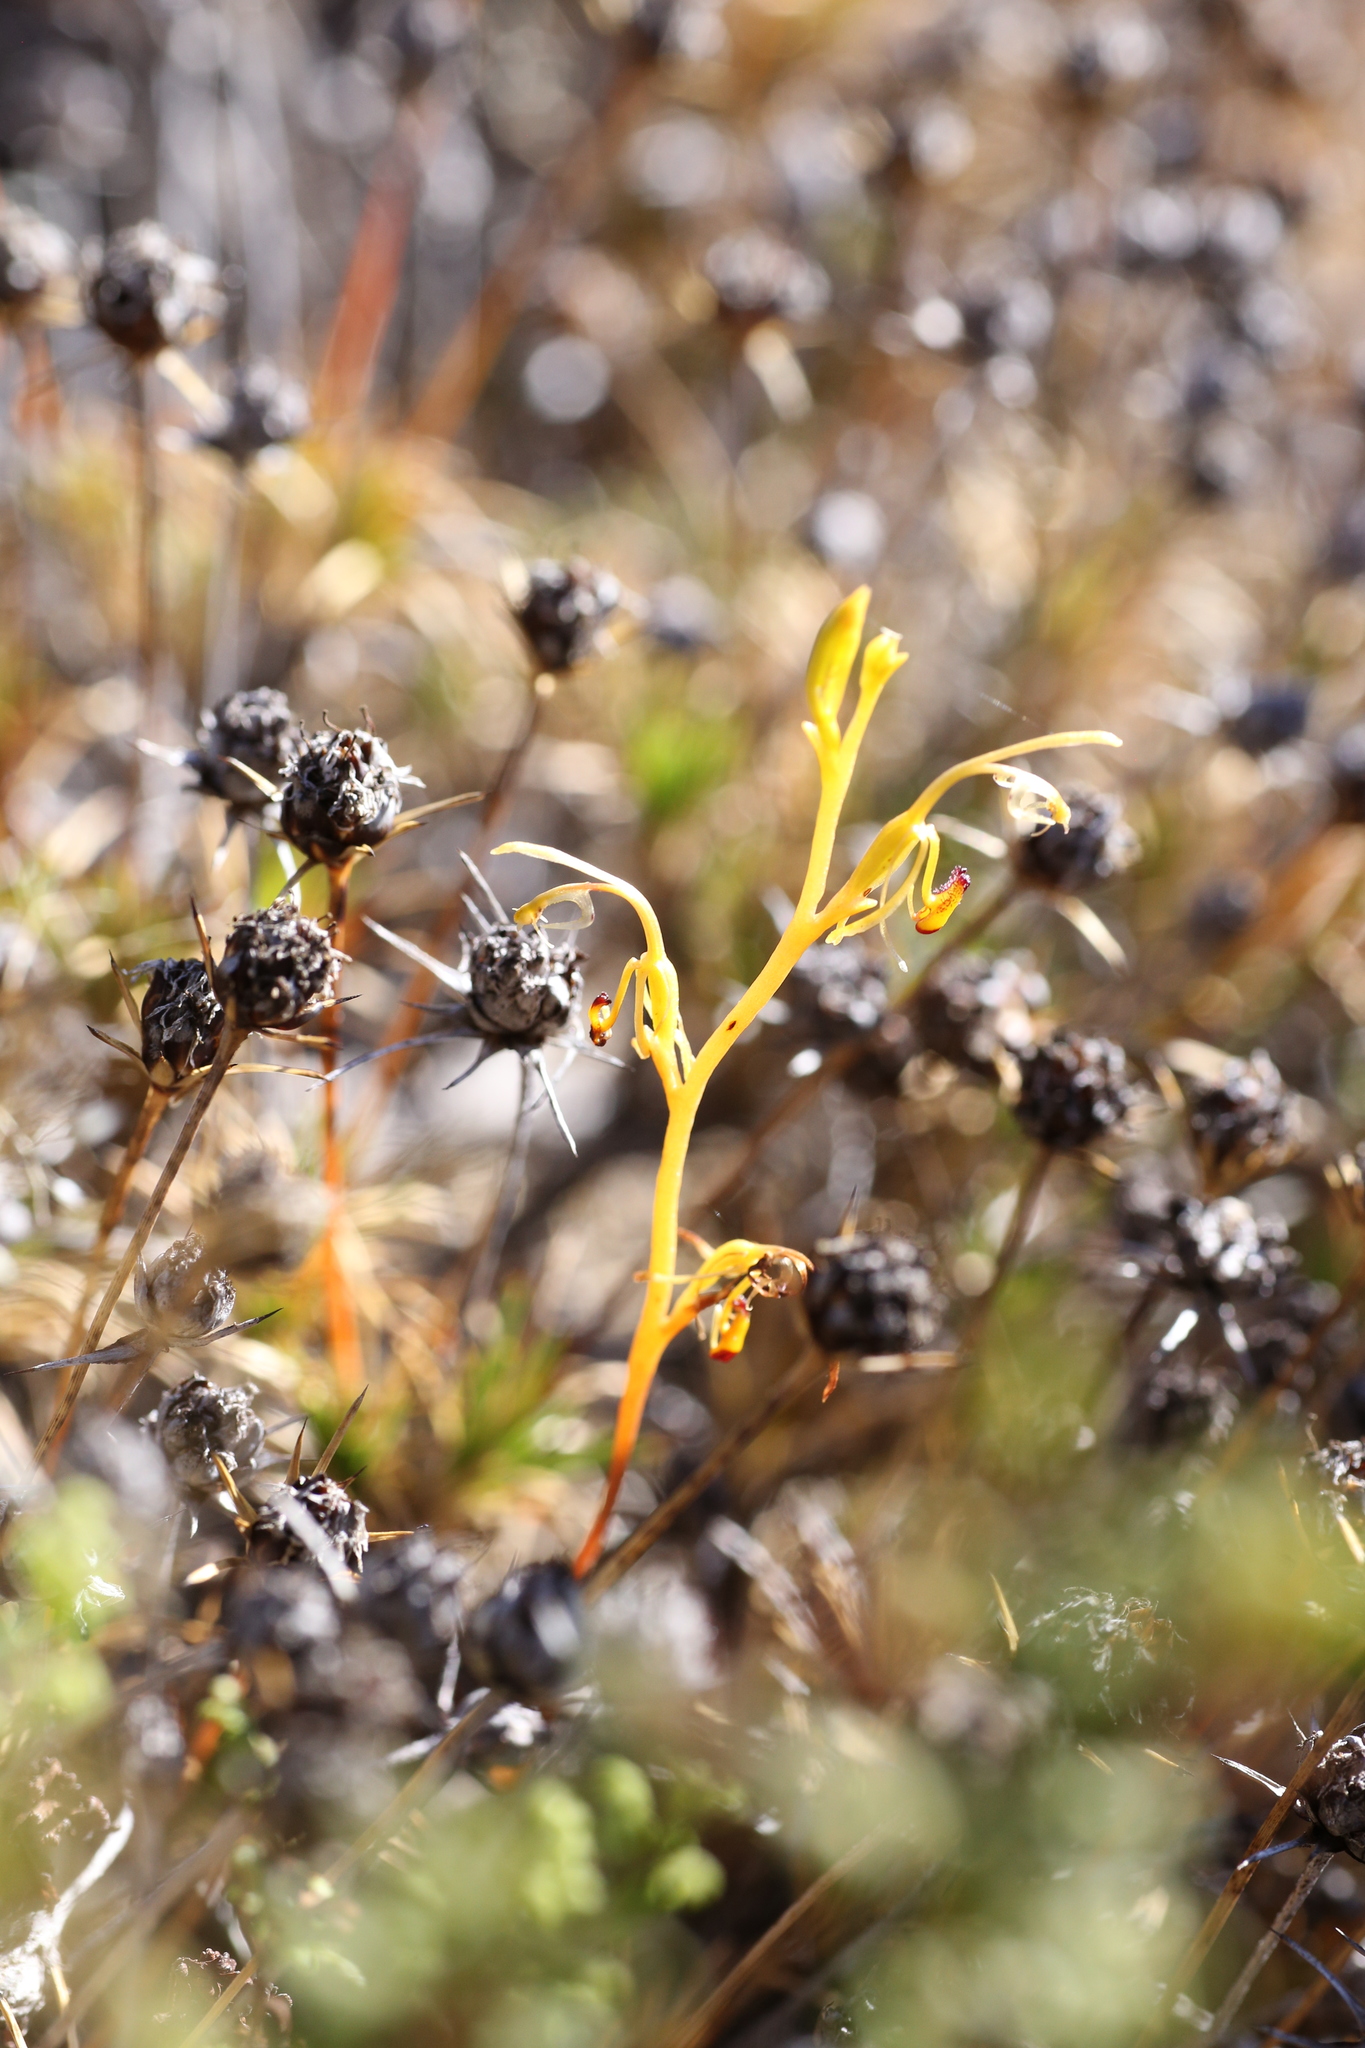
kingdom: Plantae
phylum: Tracheophyta
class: Liliopsida
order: Asparagales
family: Orchidaceae
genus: Spiculaea
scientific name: Spiculaea ciliata
